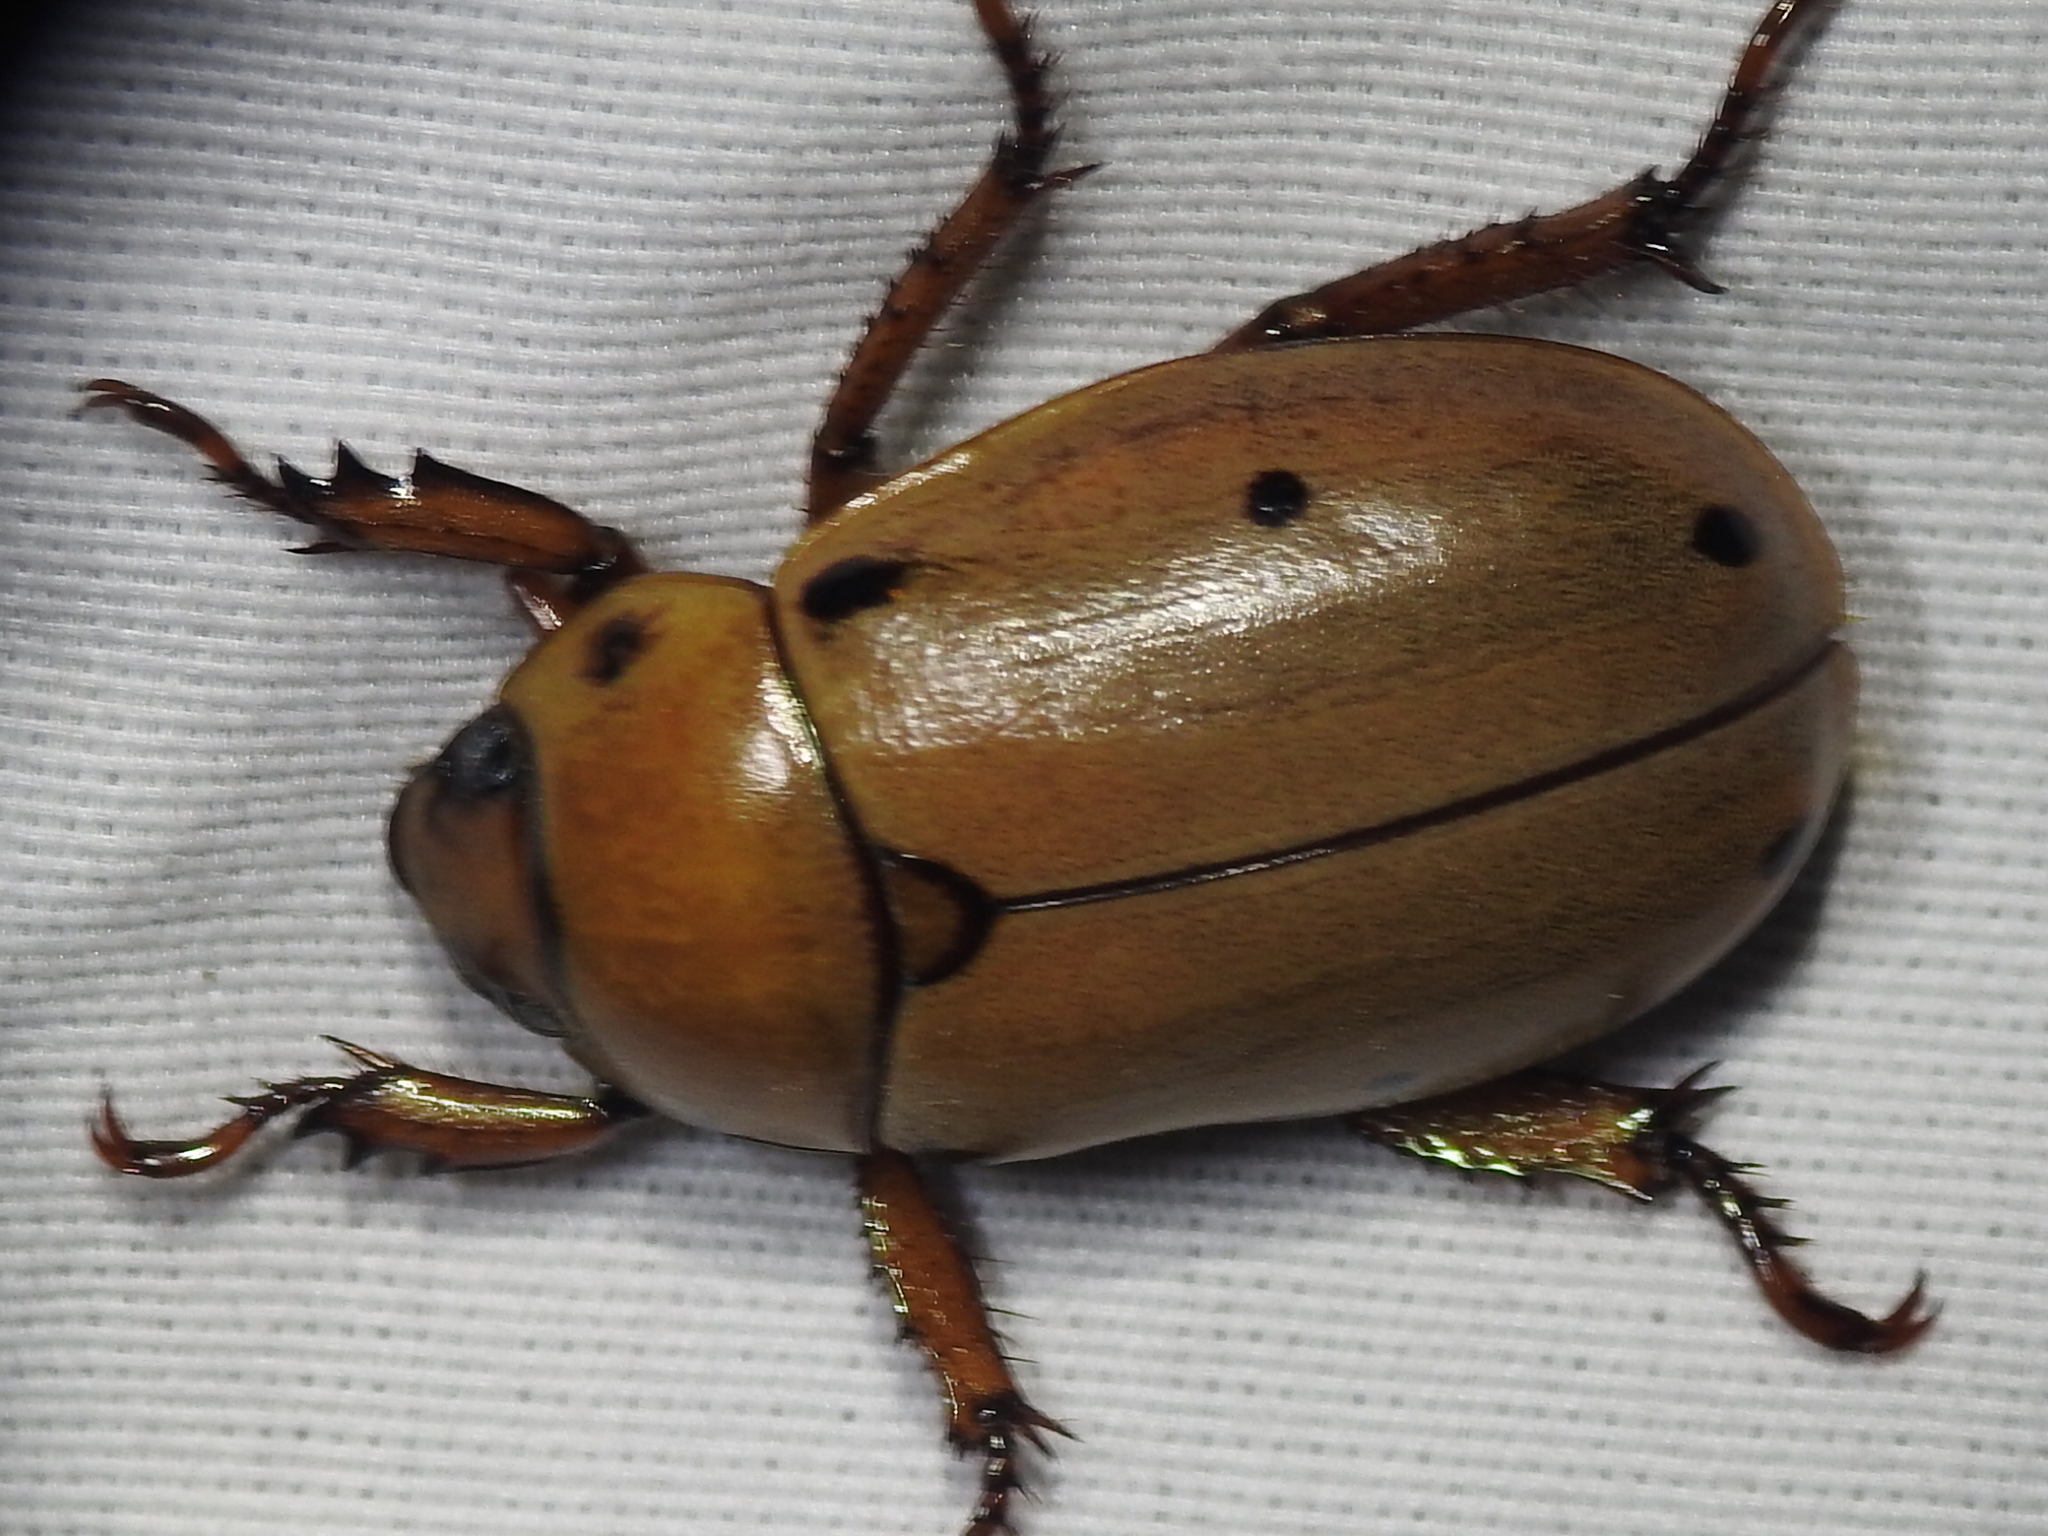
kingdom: Animalia
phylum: Arthropoda
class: Insecta
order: Coleoptera
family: Scarabaeidae
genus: Pelidnota
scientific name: Pelidnota punctata
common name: Grapevine beetle
